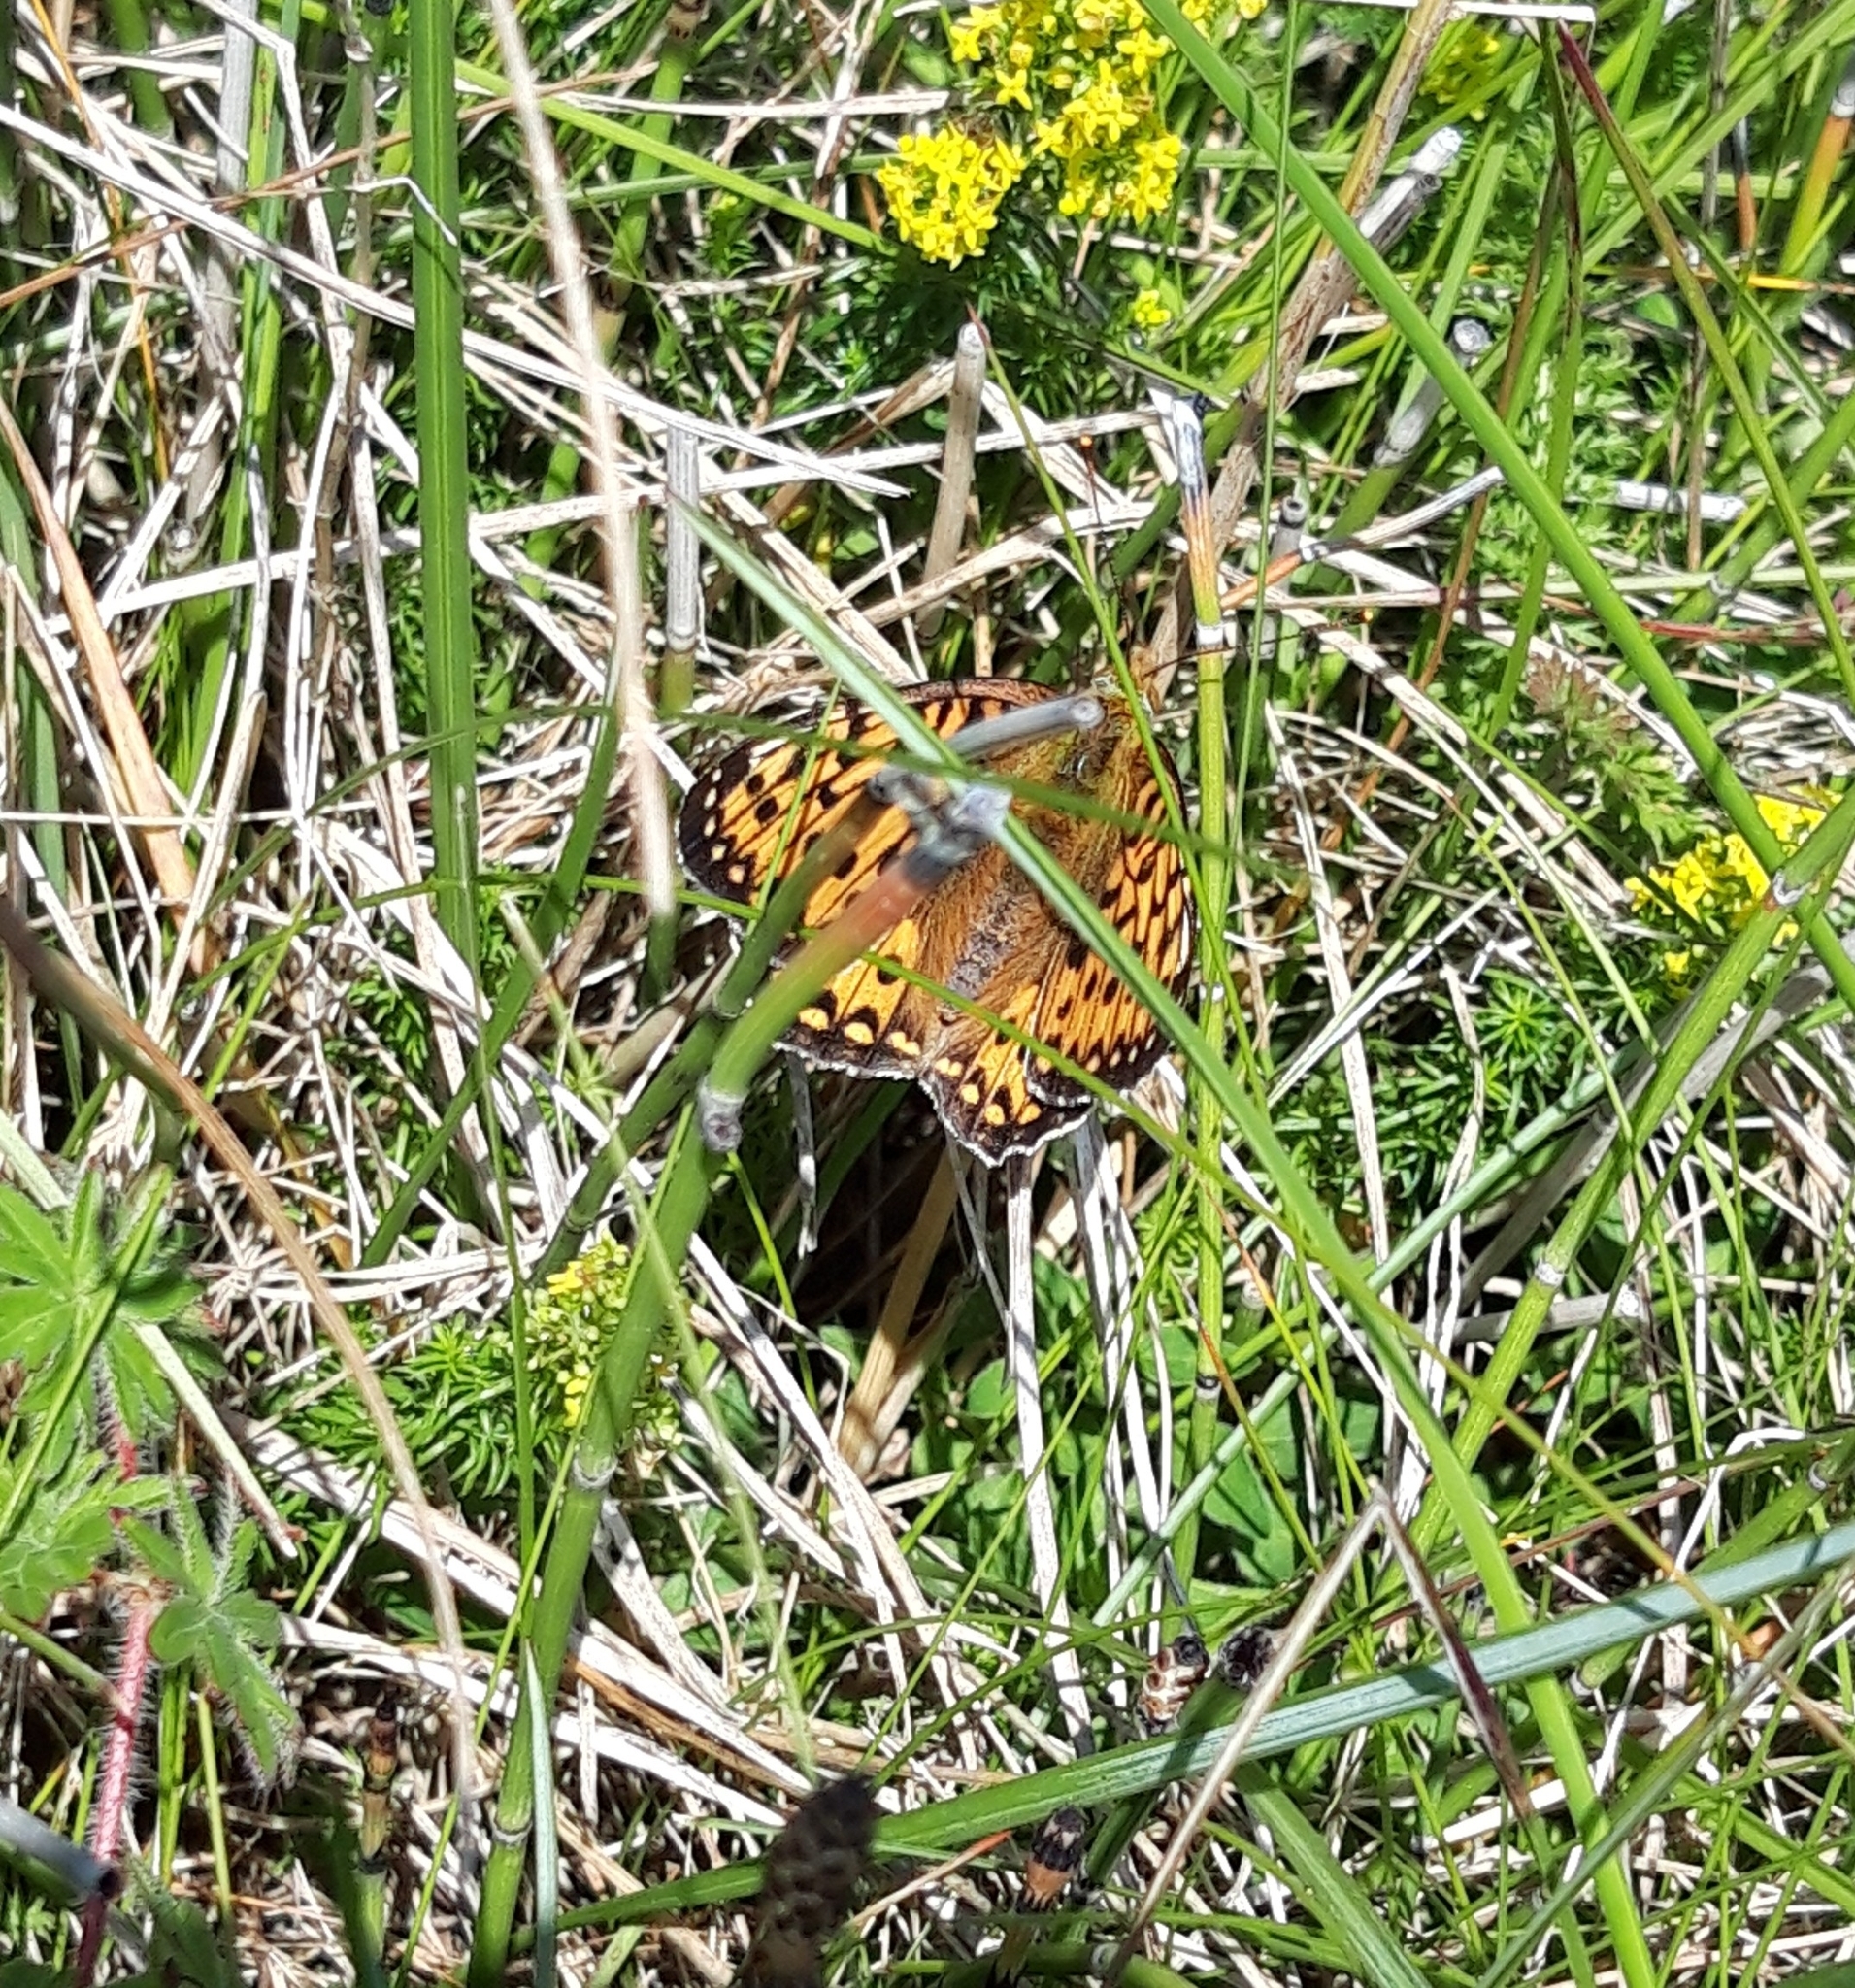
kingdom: Animalia
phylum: Arthropoda
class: Insecta
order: Lepidoptera
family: Nymphalidae
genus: Speyeria
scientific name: Speyeria aglaja
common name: Dark green fritillary
